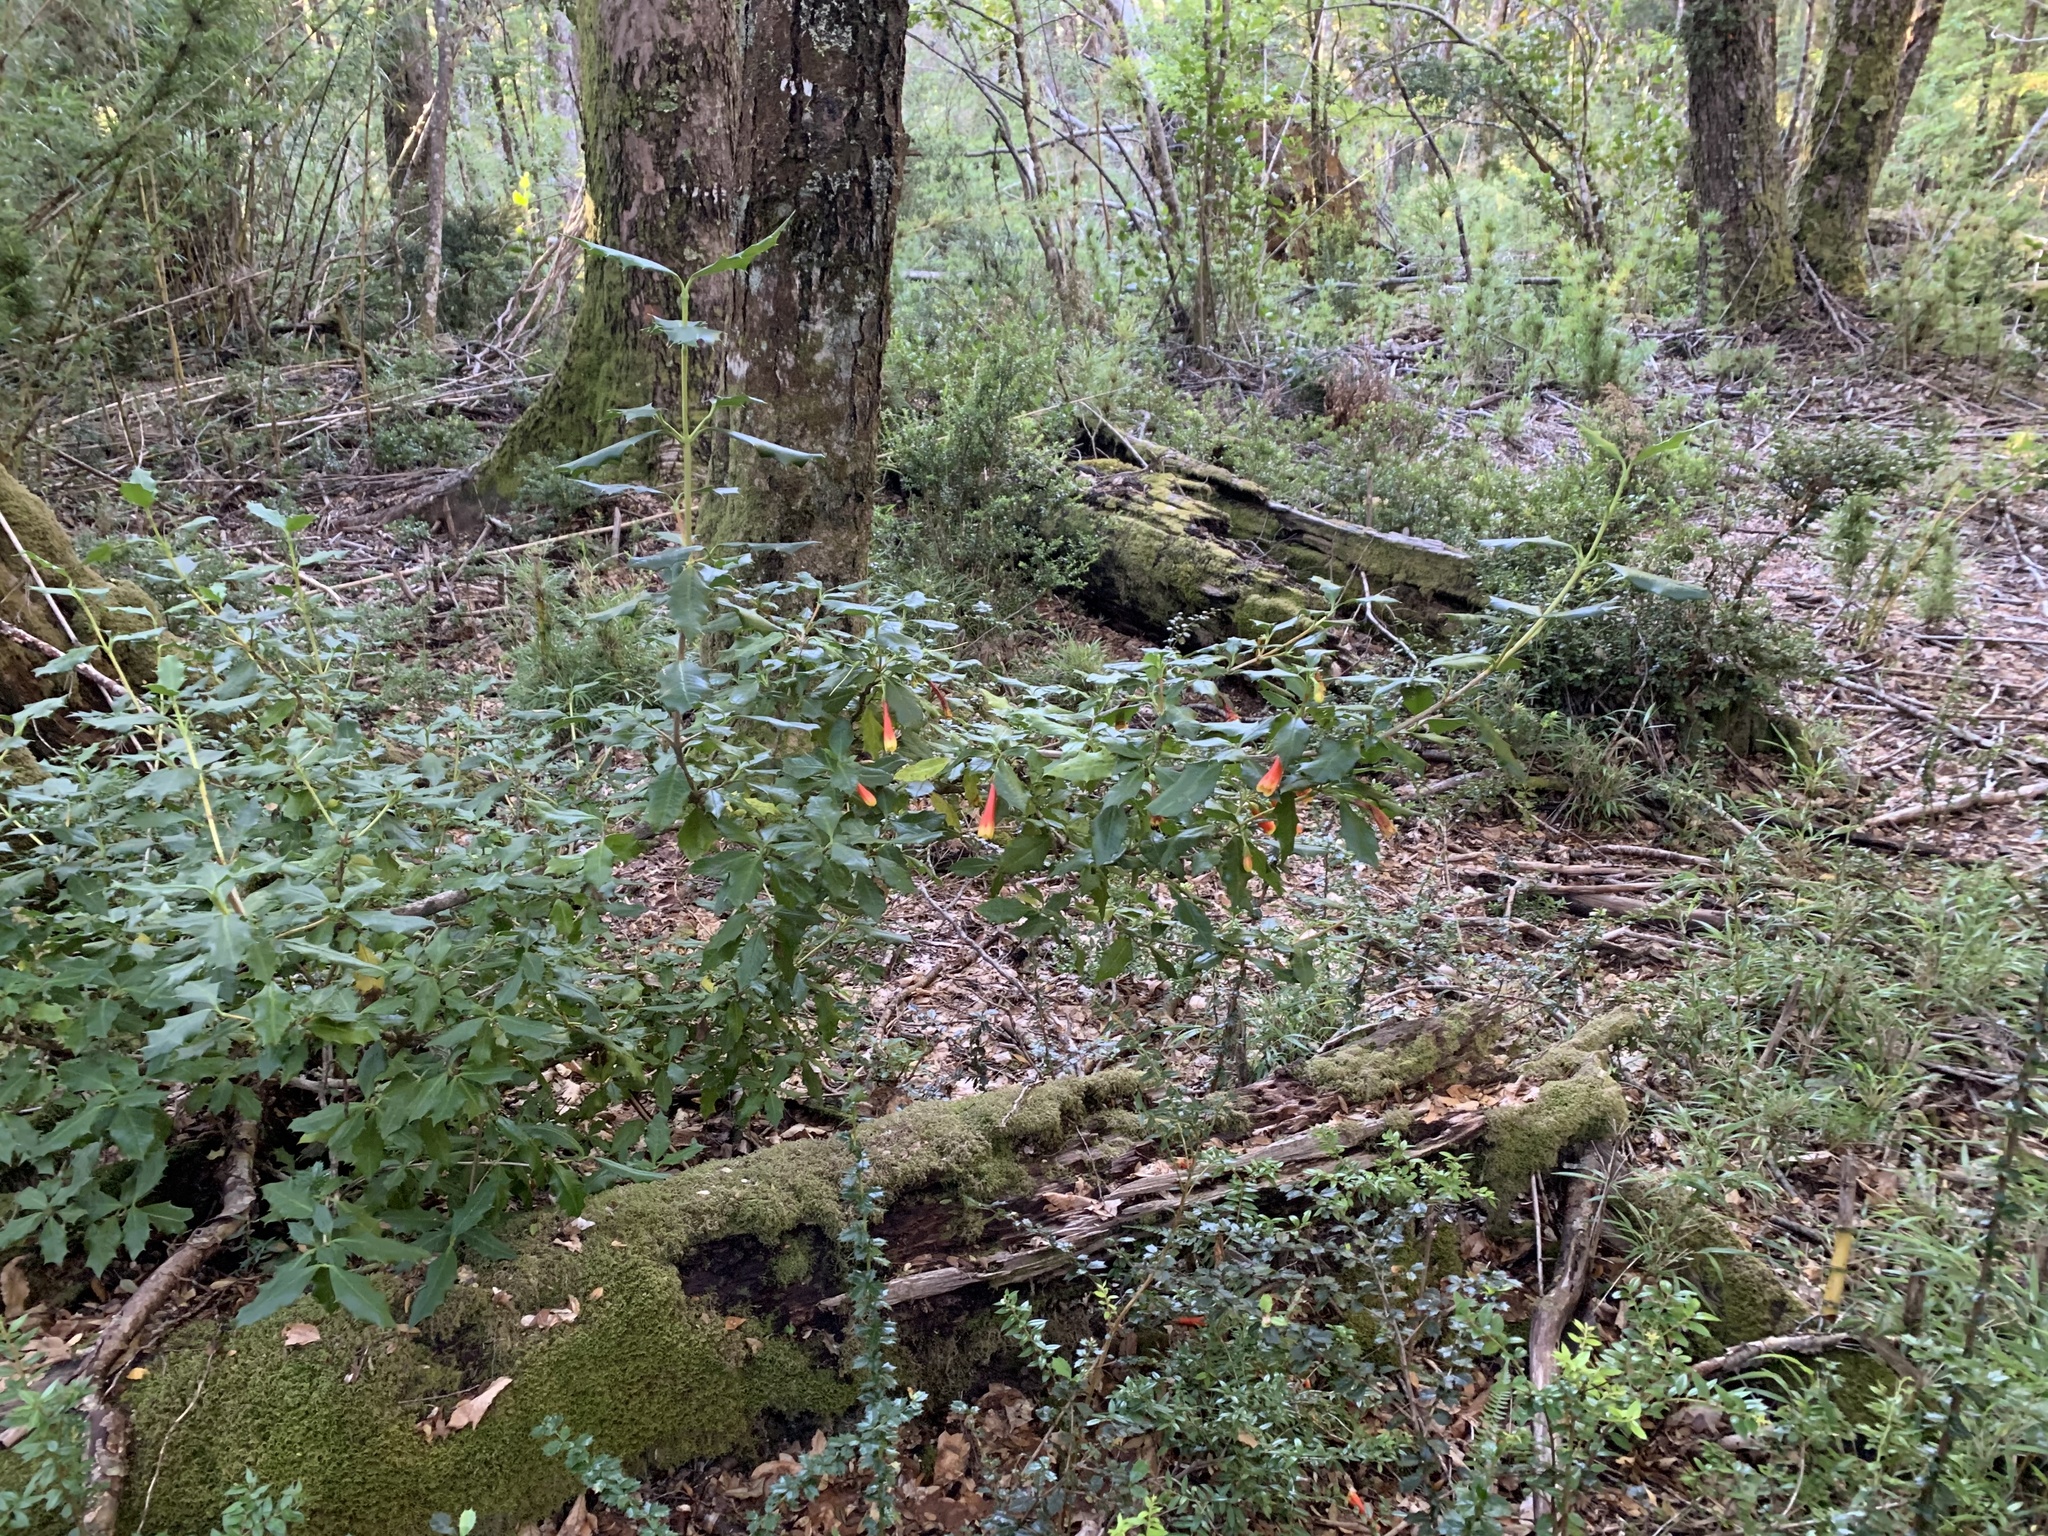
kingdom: Plantae
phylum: Tracheophyta
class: Magnoliopsida
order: Bruniales
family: Columelliaceae
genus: Desfontainia
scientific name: Desfontainia fulgens
